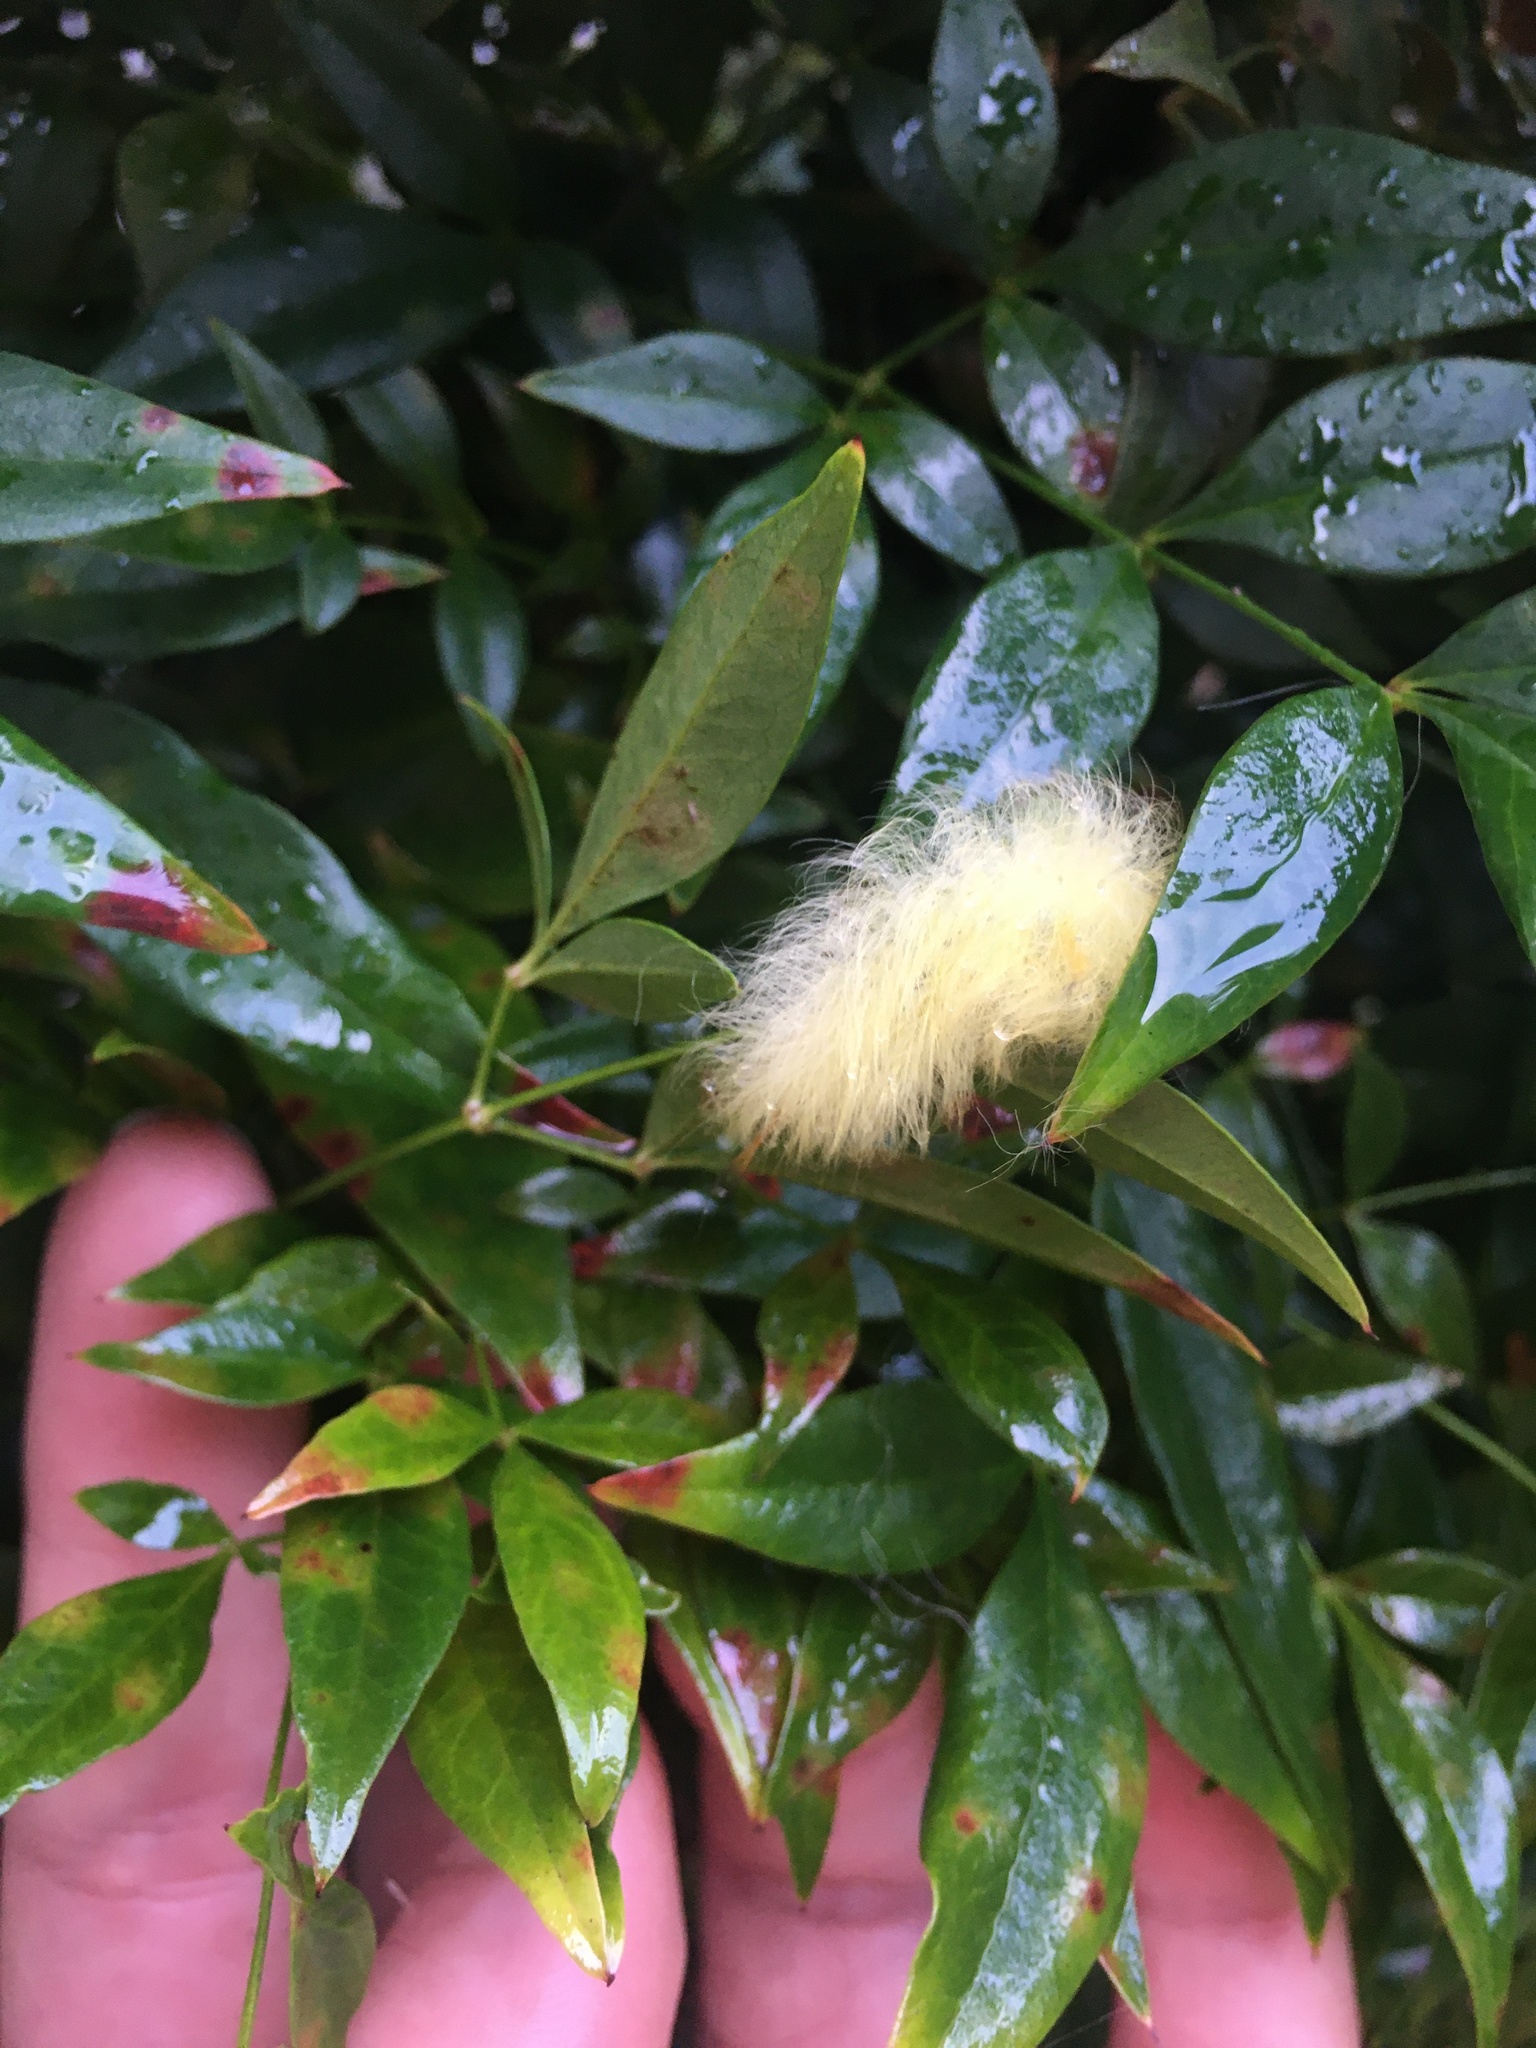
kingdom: Animalia
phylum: Arthropoda
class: Insecta
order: Lepidoptera
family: Apatelodidae
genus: Hygrochroa
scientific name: Hygrochroa Apatelodes torrefacta
